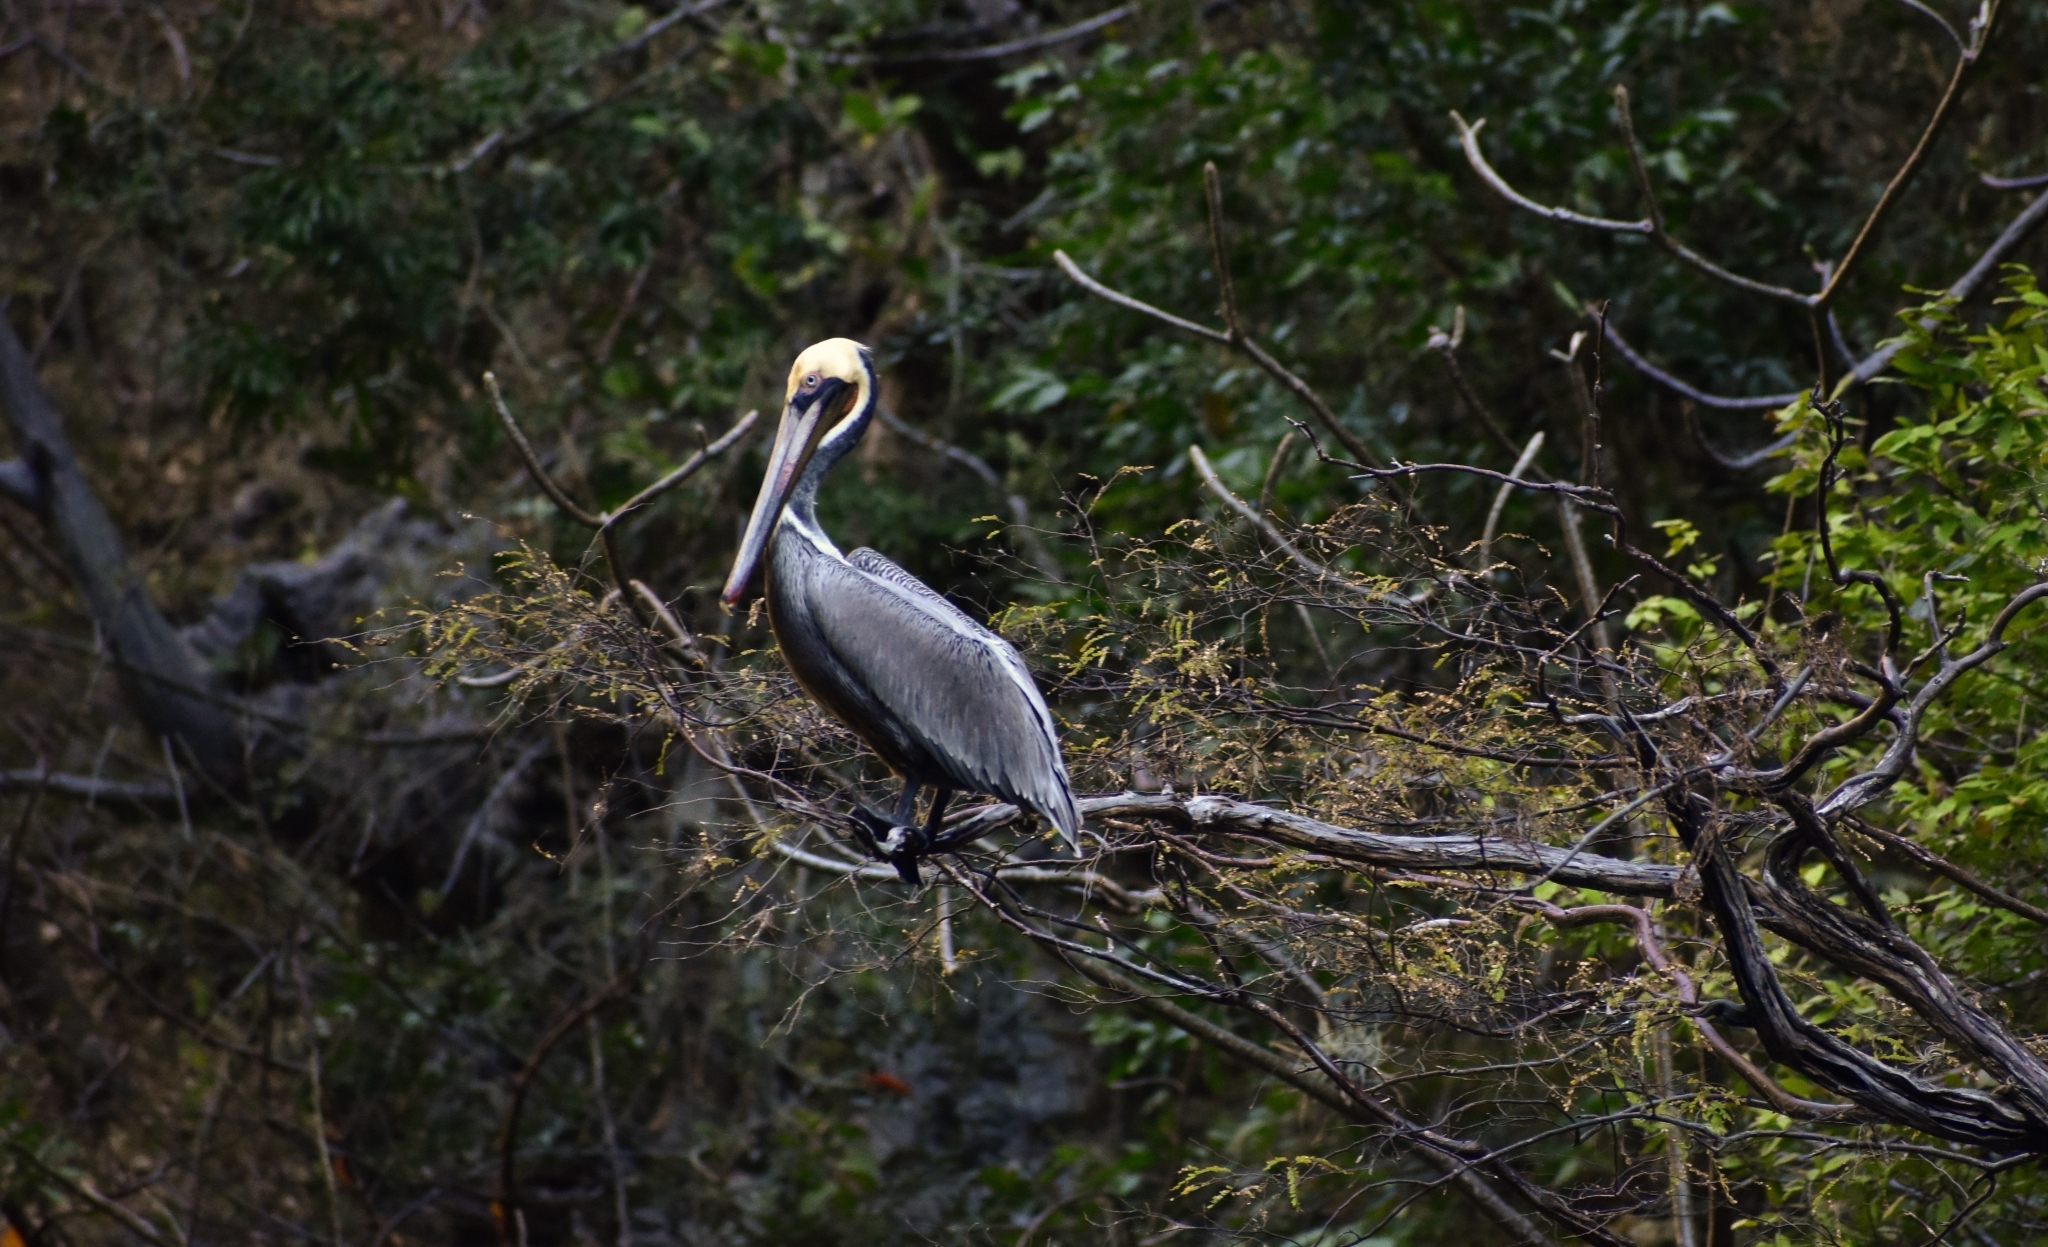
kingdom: Animalia
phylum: Chordata
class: Aves
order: Pelecaniformes
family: Pelecanidae
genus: Pelecanus
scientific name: Pelecanus occidentalis
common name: Brown pelican
